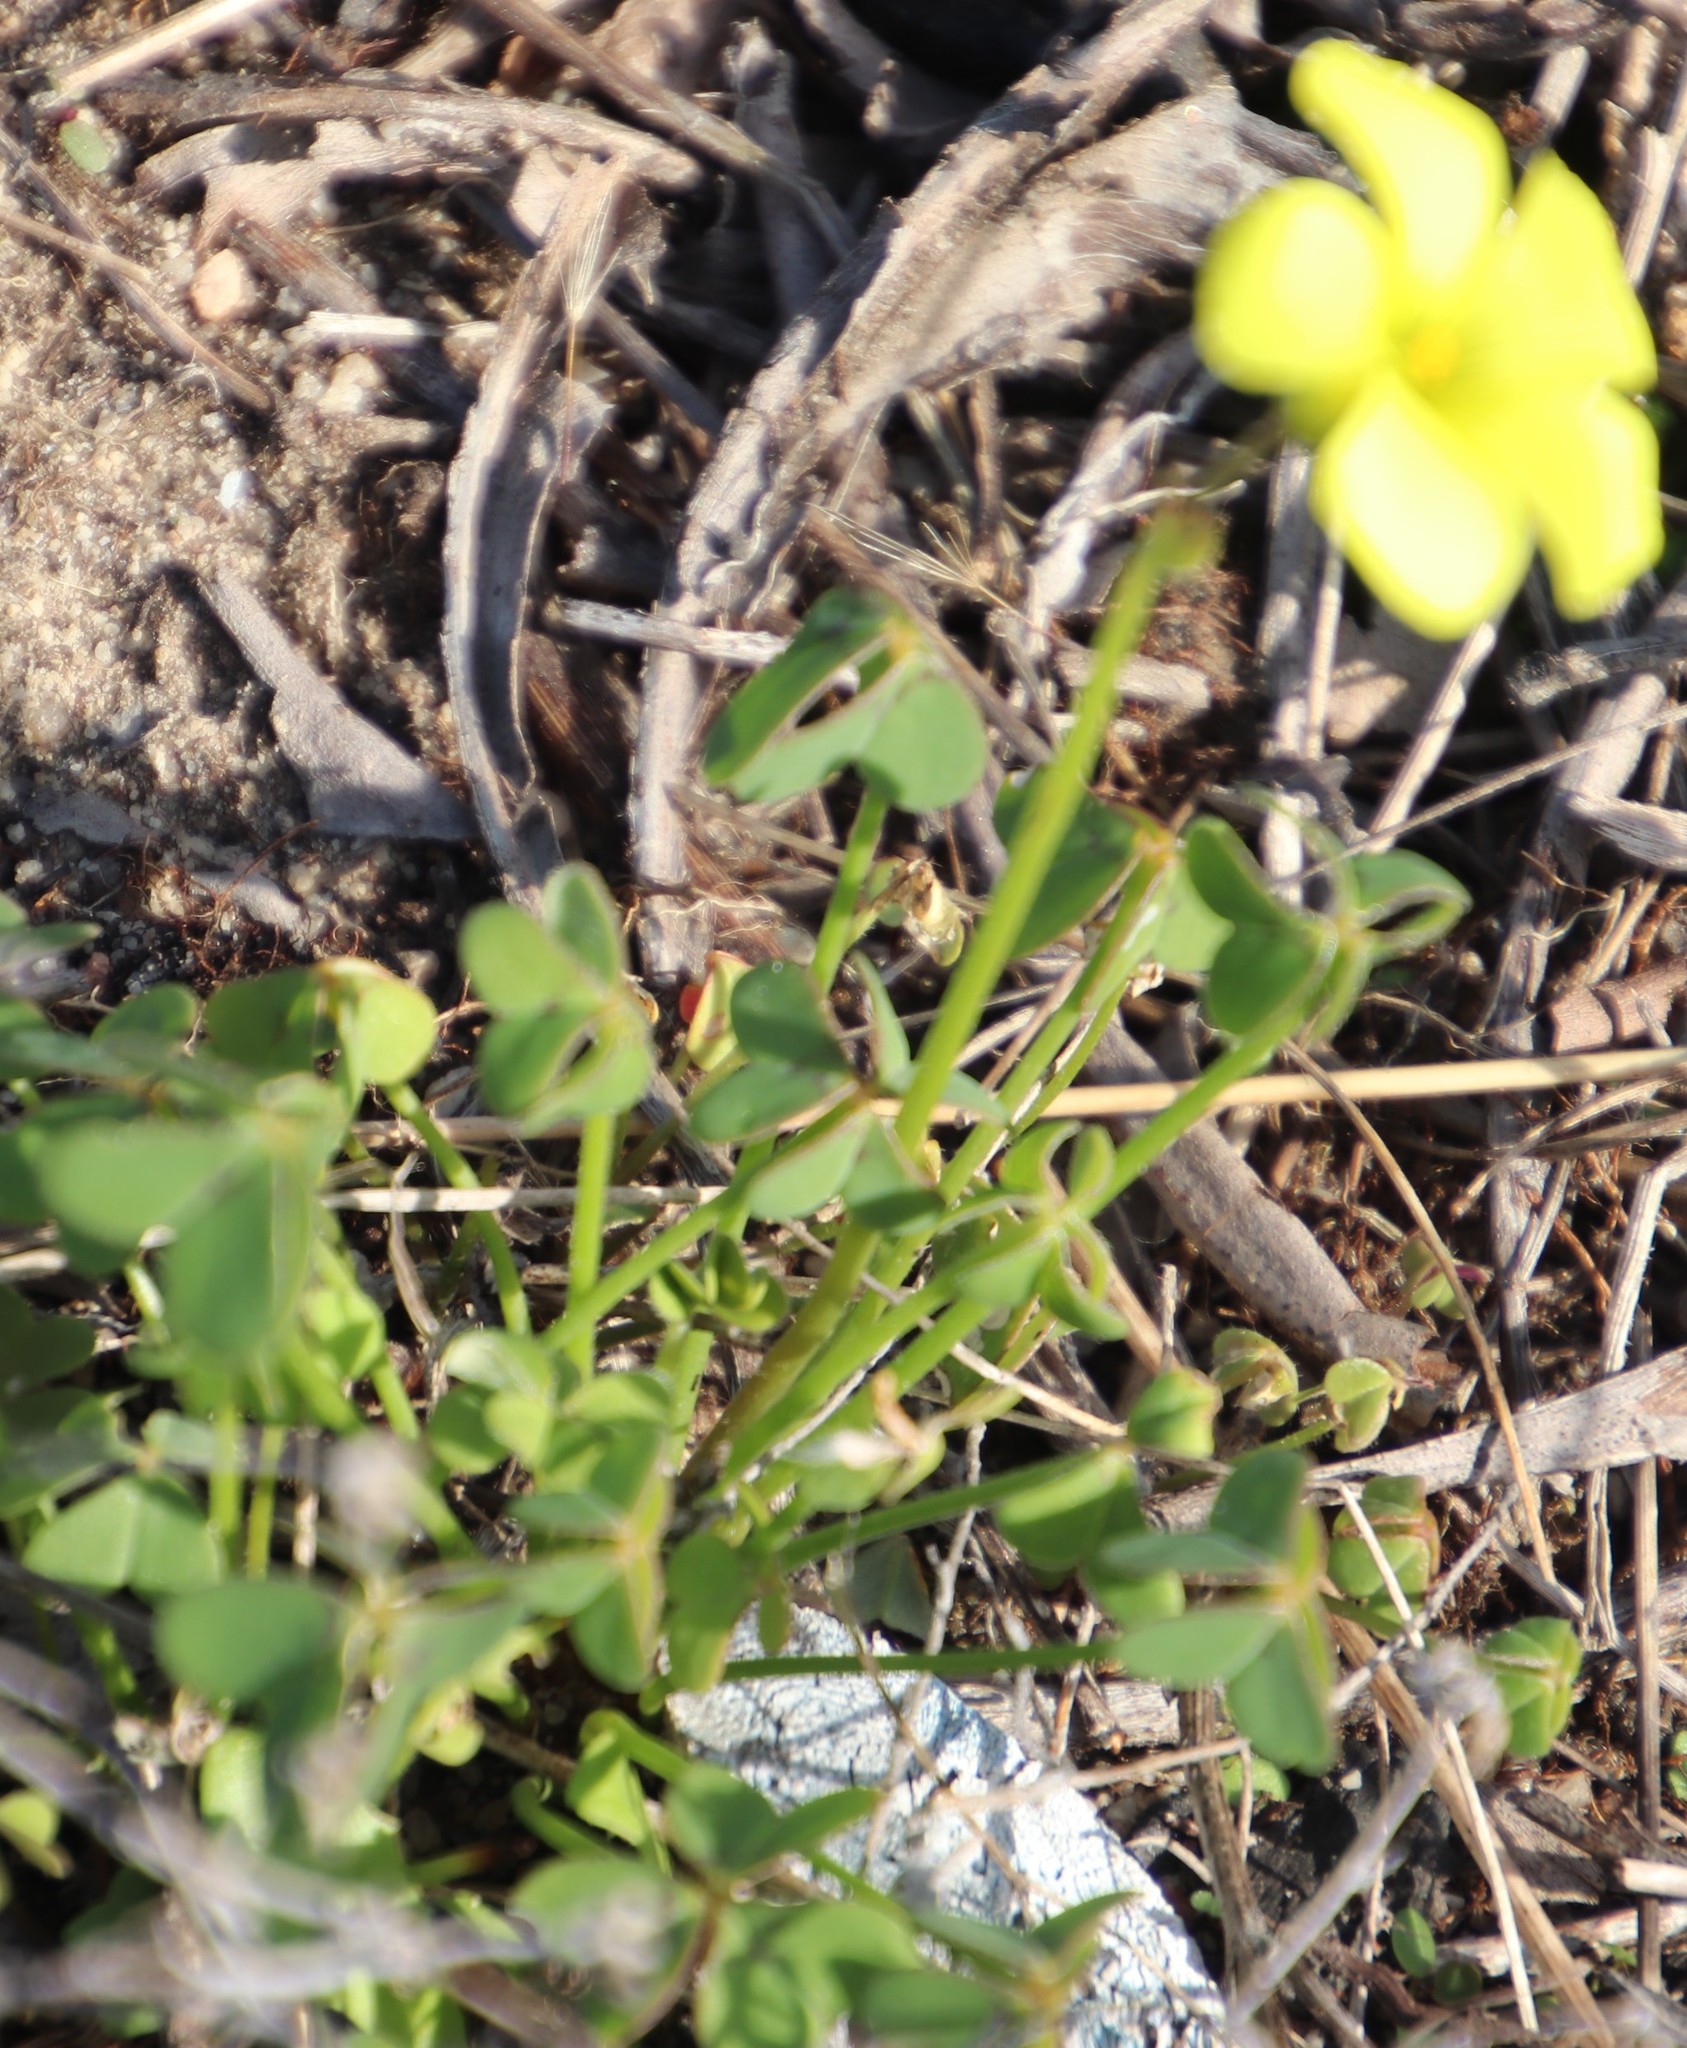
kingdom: Plantae
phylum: Tracheophyta
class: Magnoliopsida
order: Oxalidales
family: Oxalidaceae
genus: Oxalis
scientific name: Oxalis pes-caprae
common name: Bermuda-buttercup
